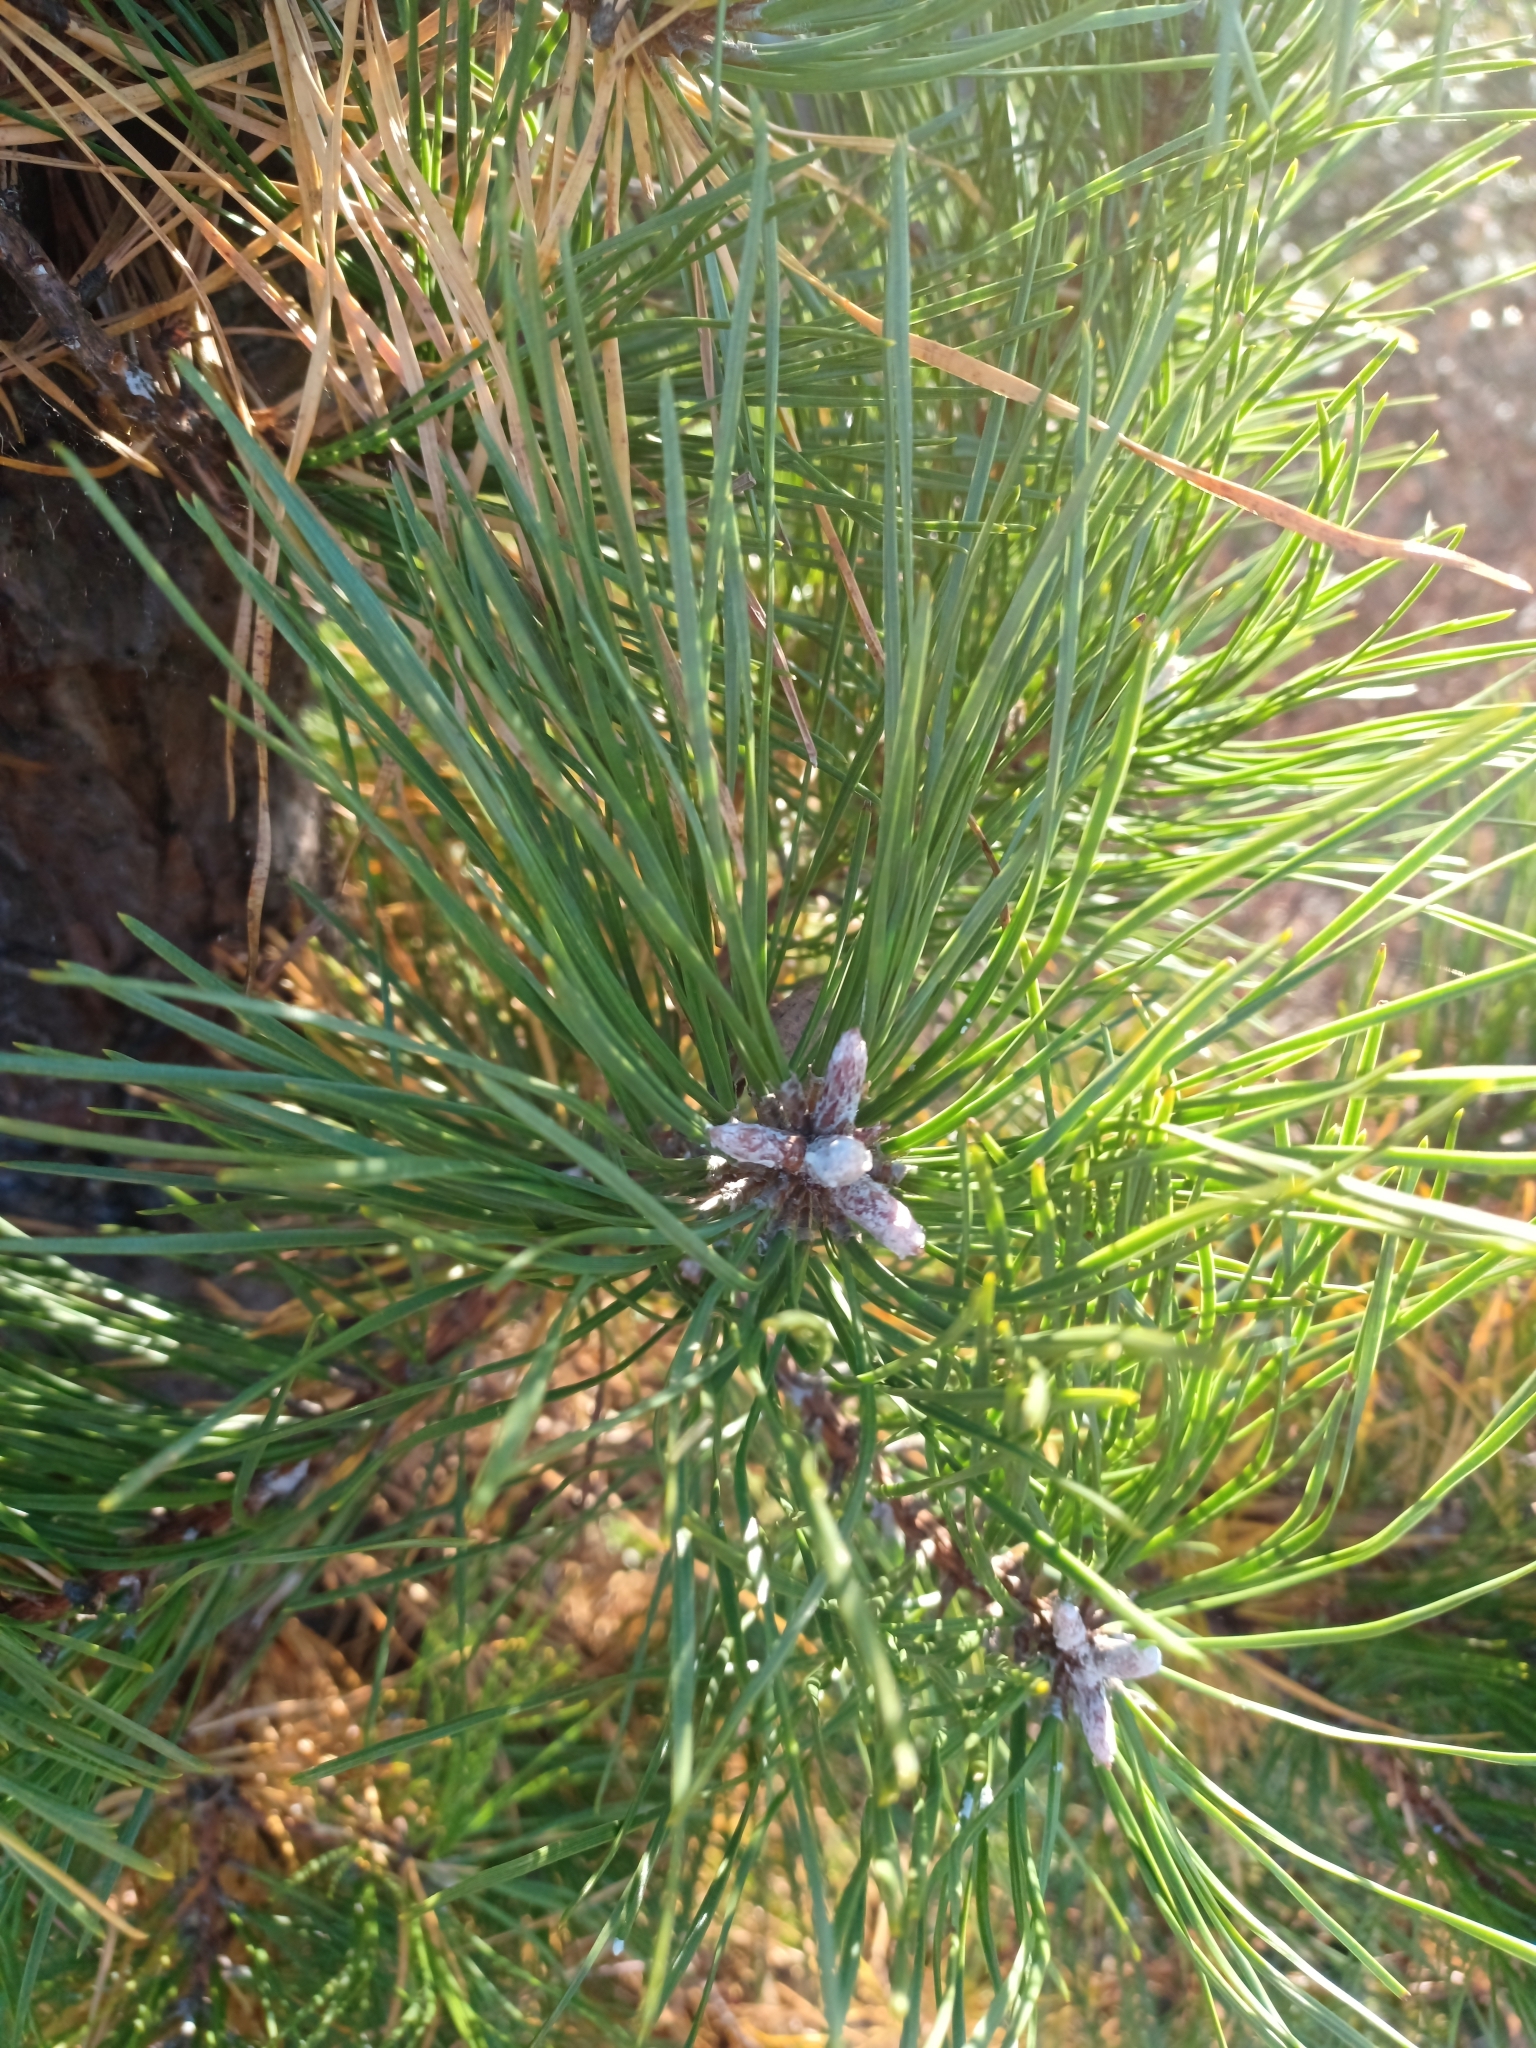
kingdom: Plantae
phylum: Tracheophyta
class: Pinopsida
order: Pinales
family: Pinaceae
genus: Pinus
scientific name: Pinus rigida
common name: Pitch pine
